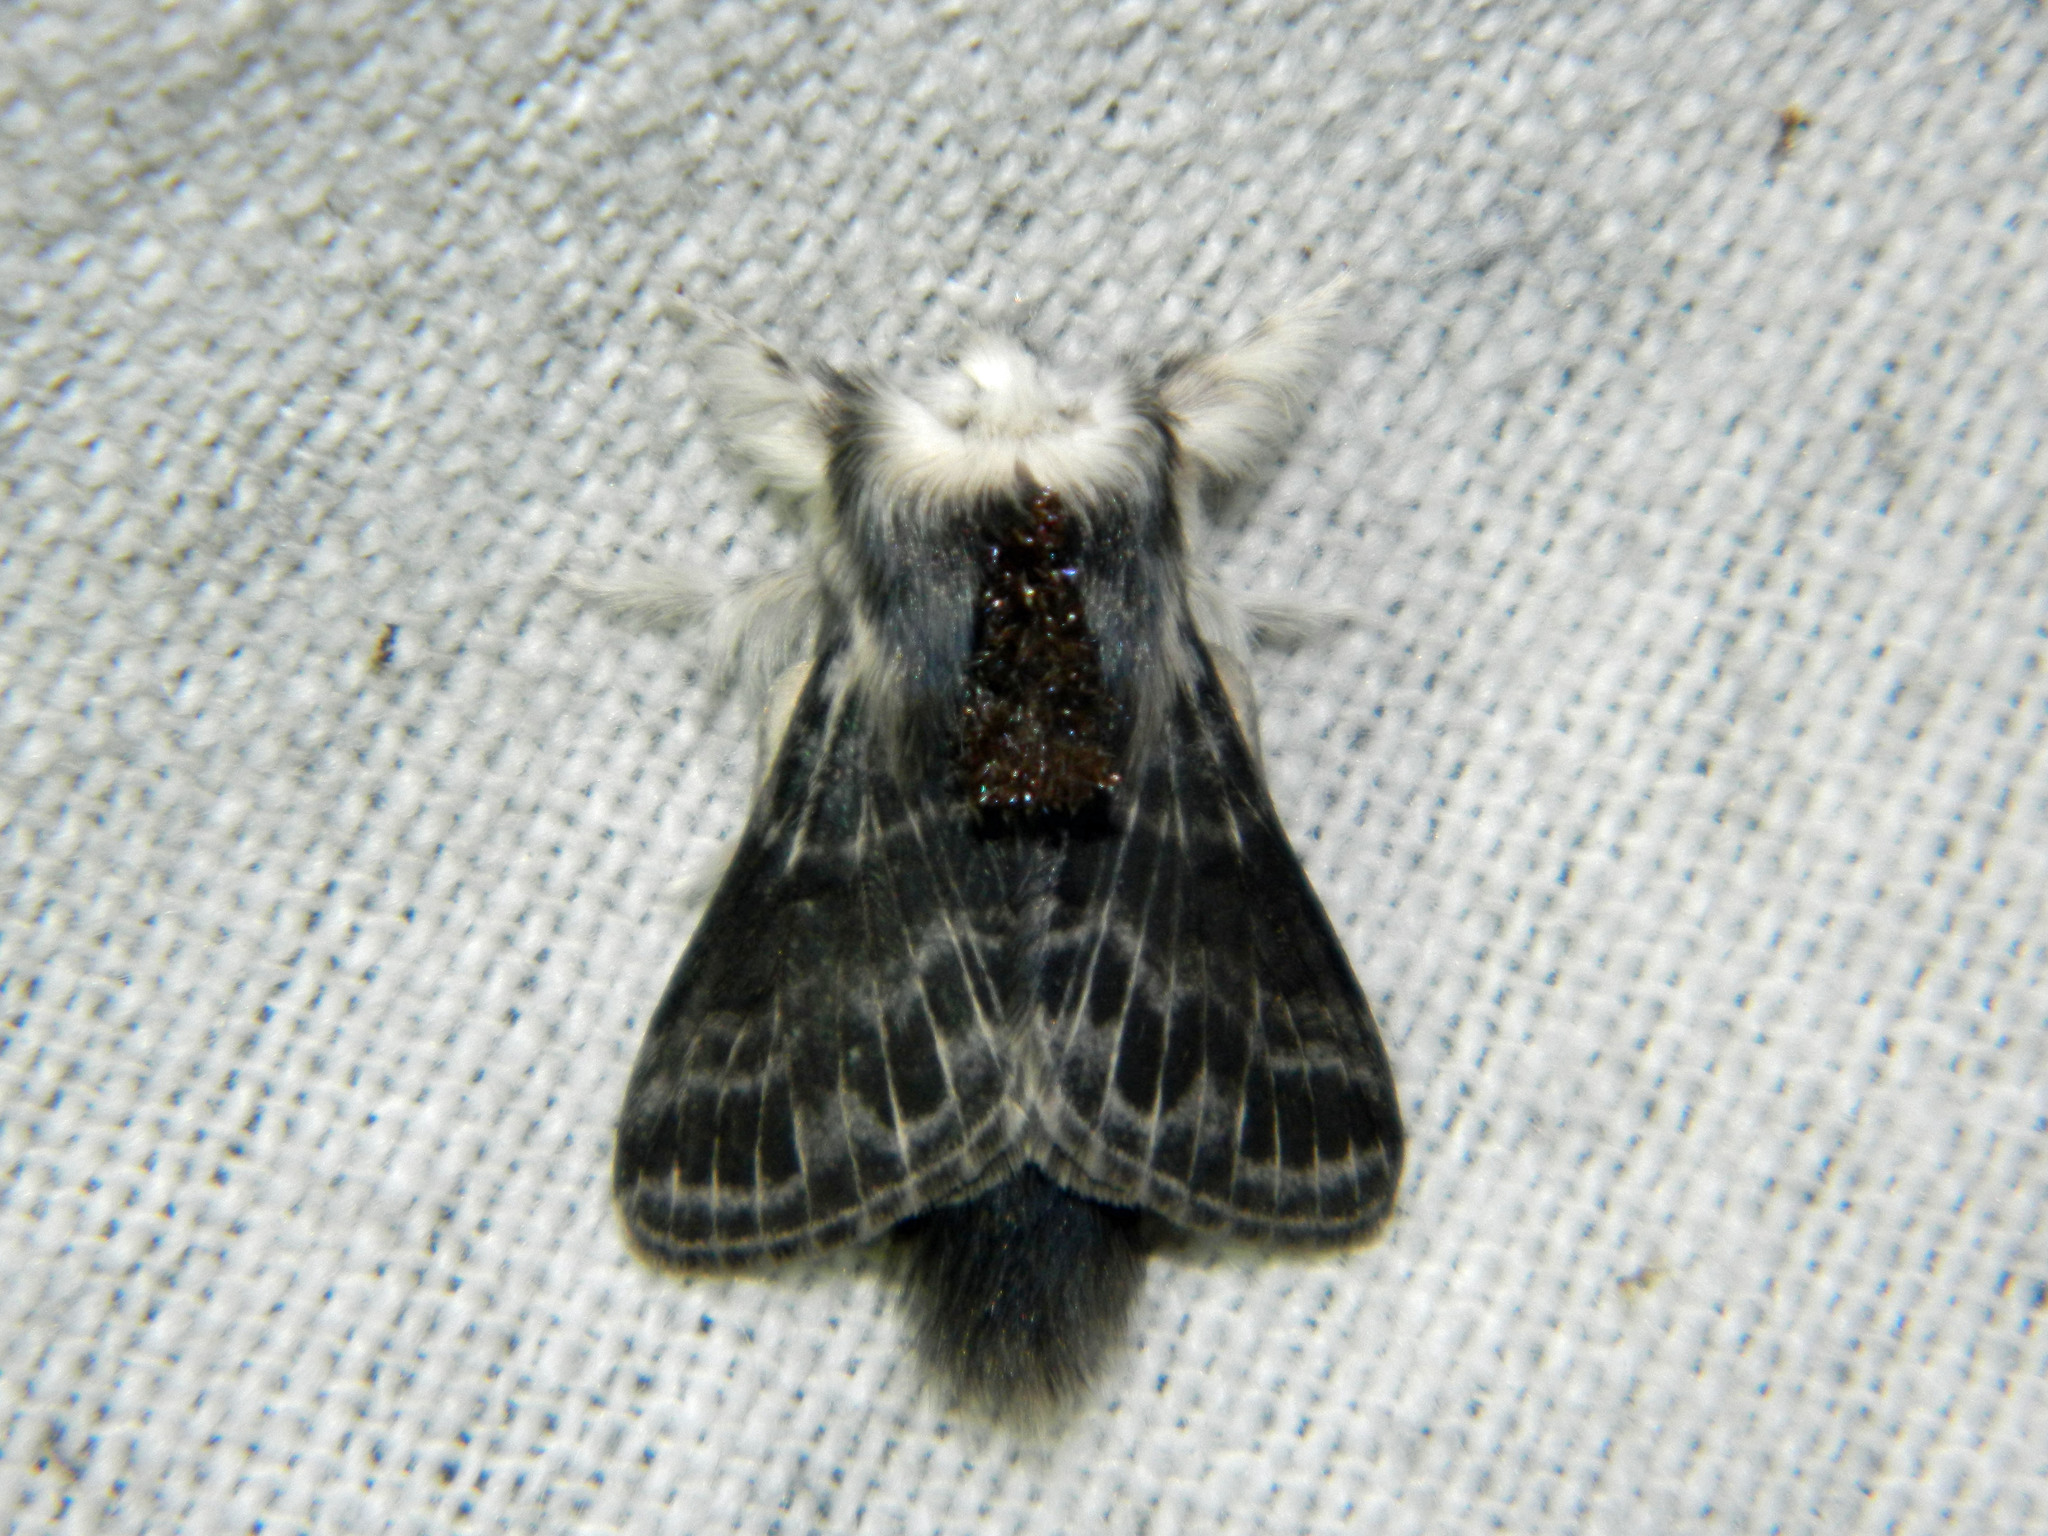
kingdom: Animalia
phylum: Arthropoda
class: Insecta
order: Lepidoptera
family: Lasiocampidae
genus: Tolype
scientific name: Tolype laricis
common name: Larch tolype moth
